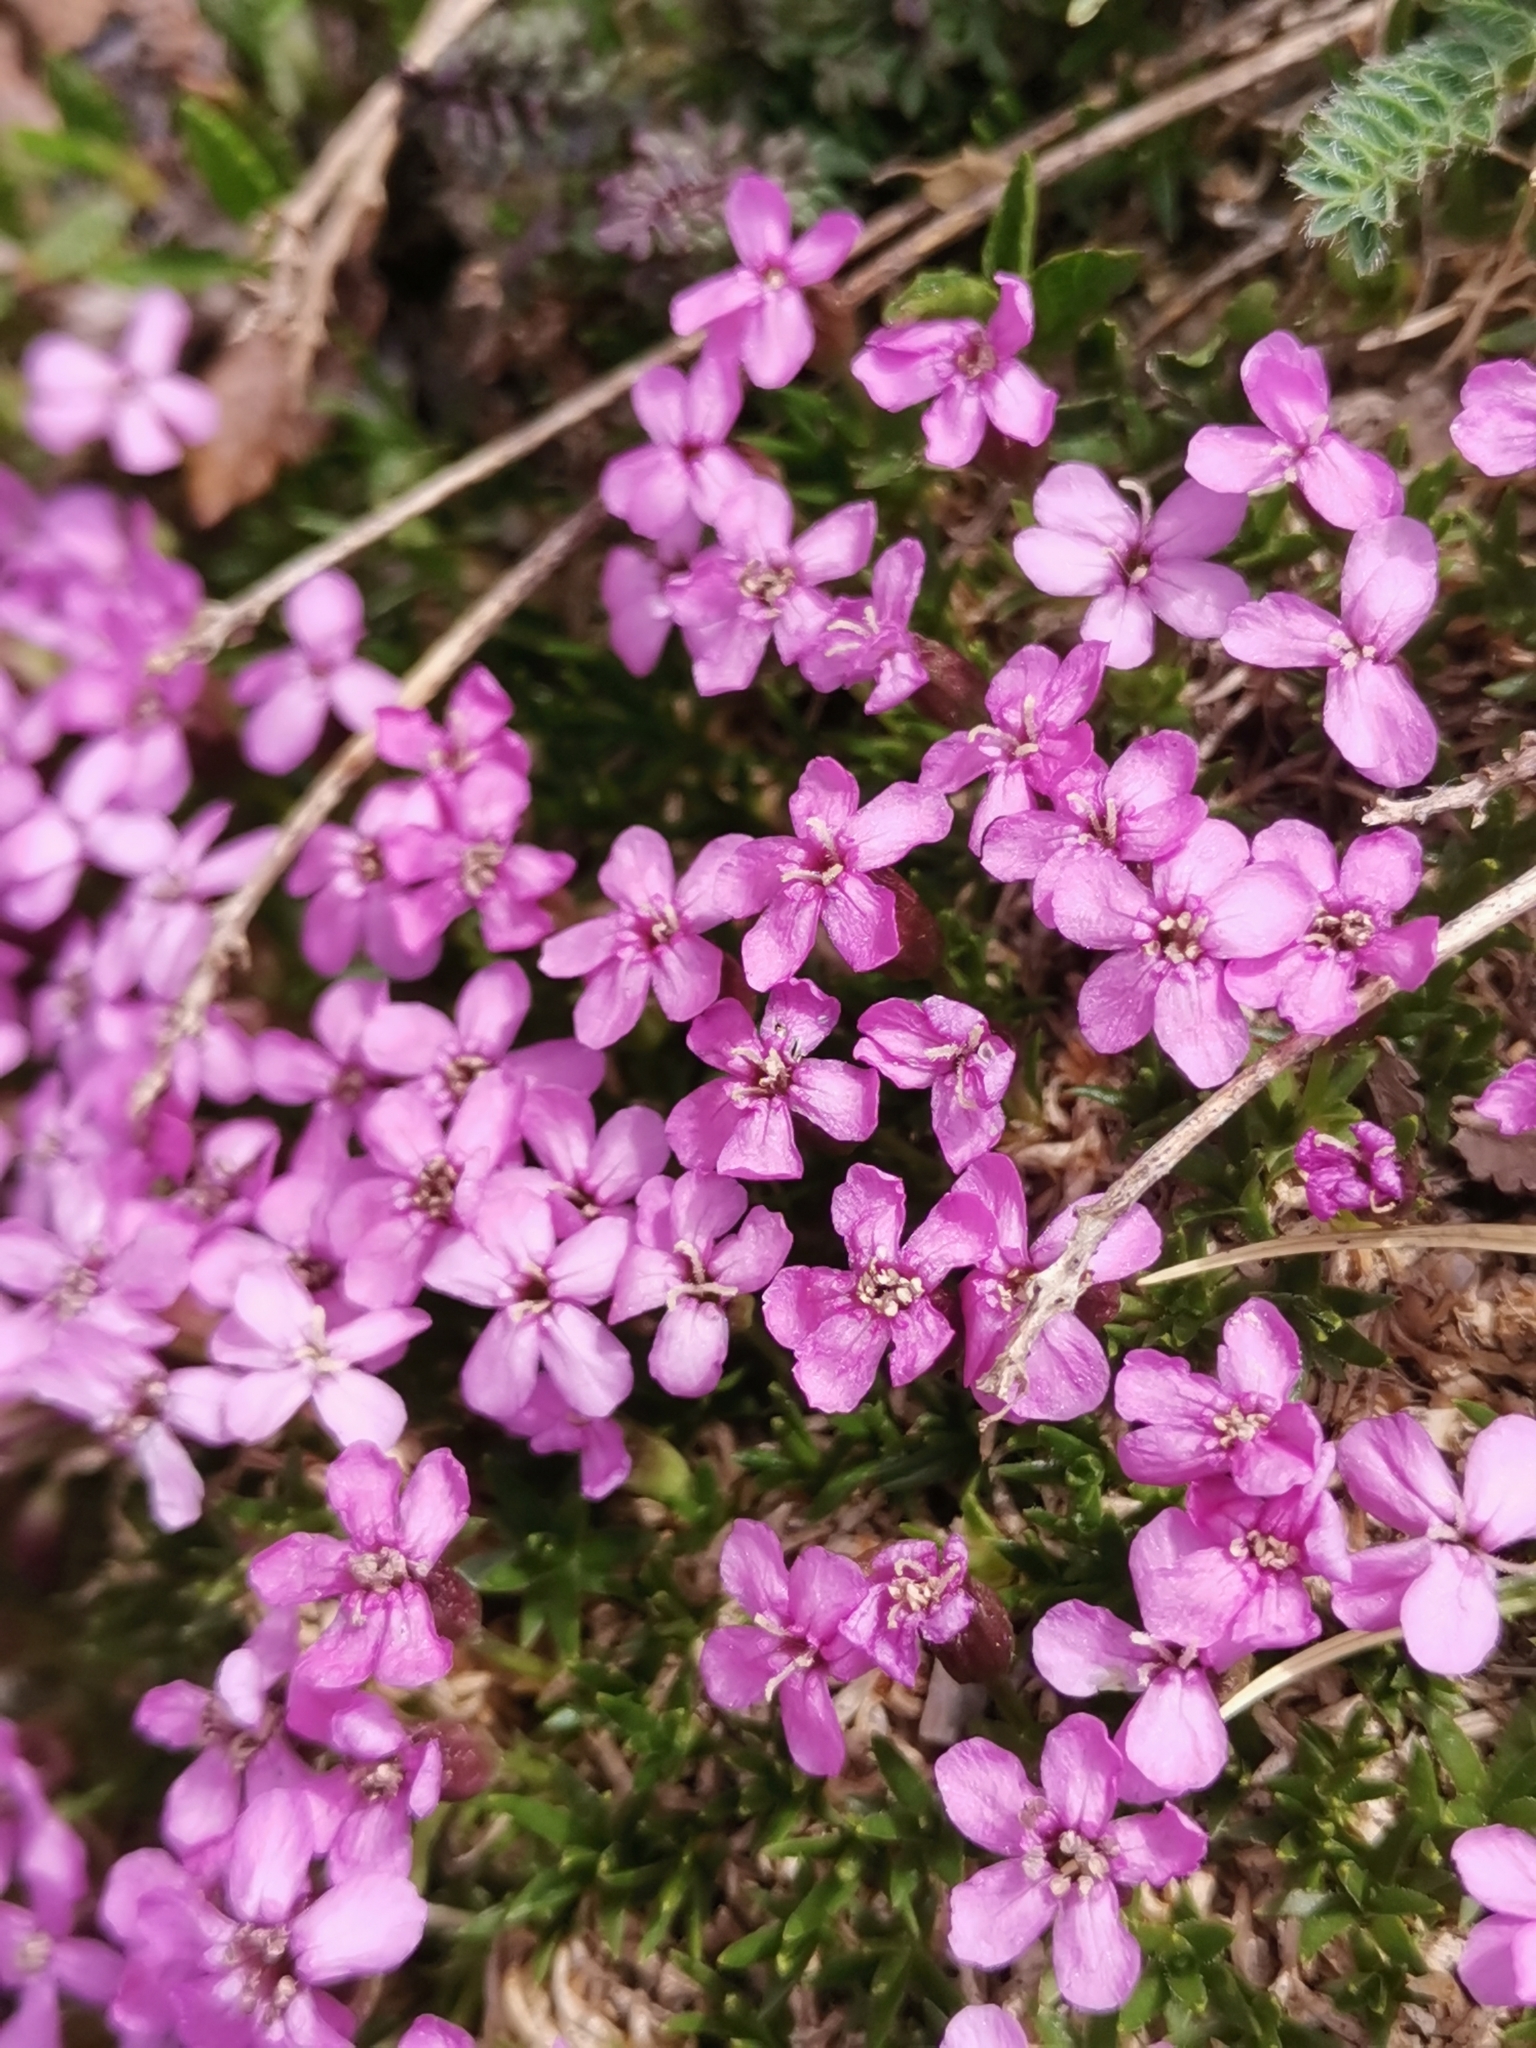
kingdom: Plantae
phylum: Tracheophyta
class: Magnoliopsida
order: Caryophyllales
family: Caryophyllaceae
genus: Silene
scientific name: Silene acaulis
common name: Moss campion
